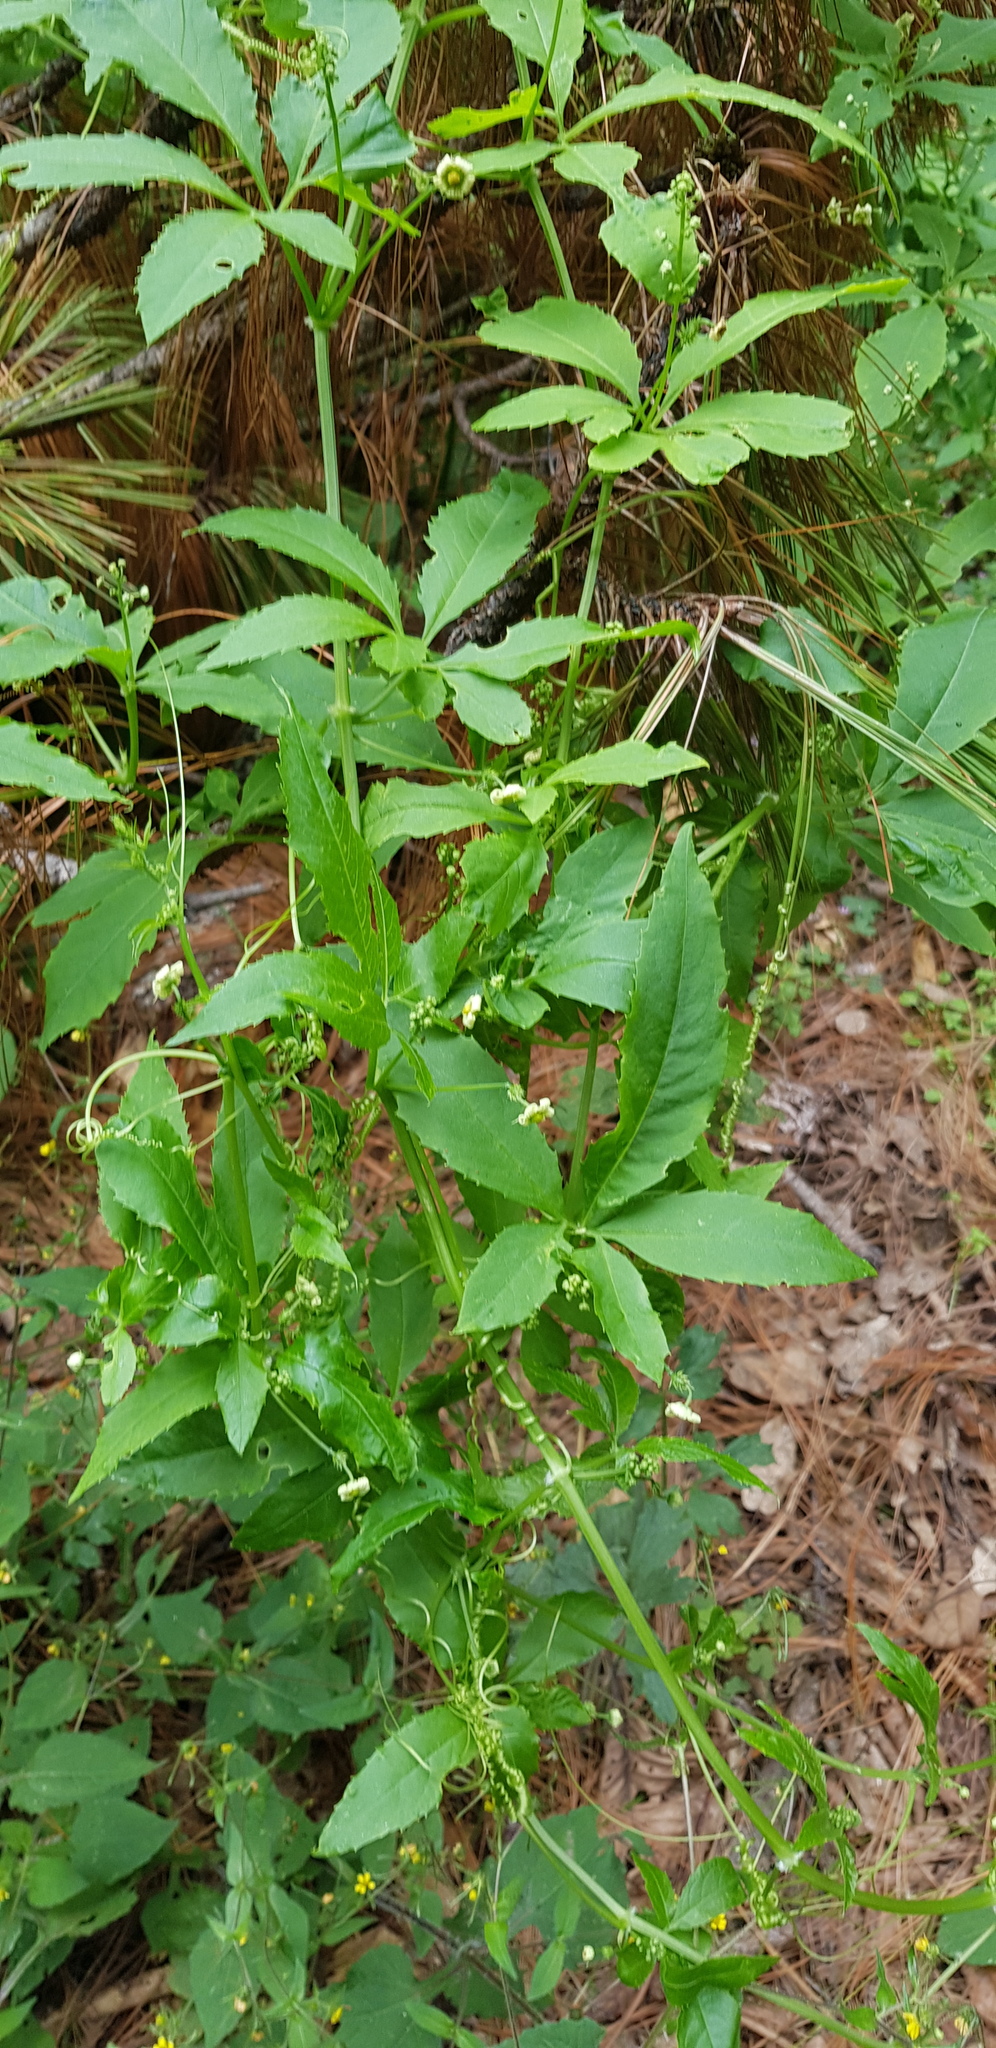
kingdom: Plantae
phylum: Tracheophyta
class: Magnoliopsida
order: Cucurbitales
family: Cucurbitaceae
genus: Cyclanthera
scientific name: Cyclanthera langaei
